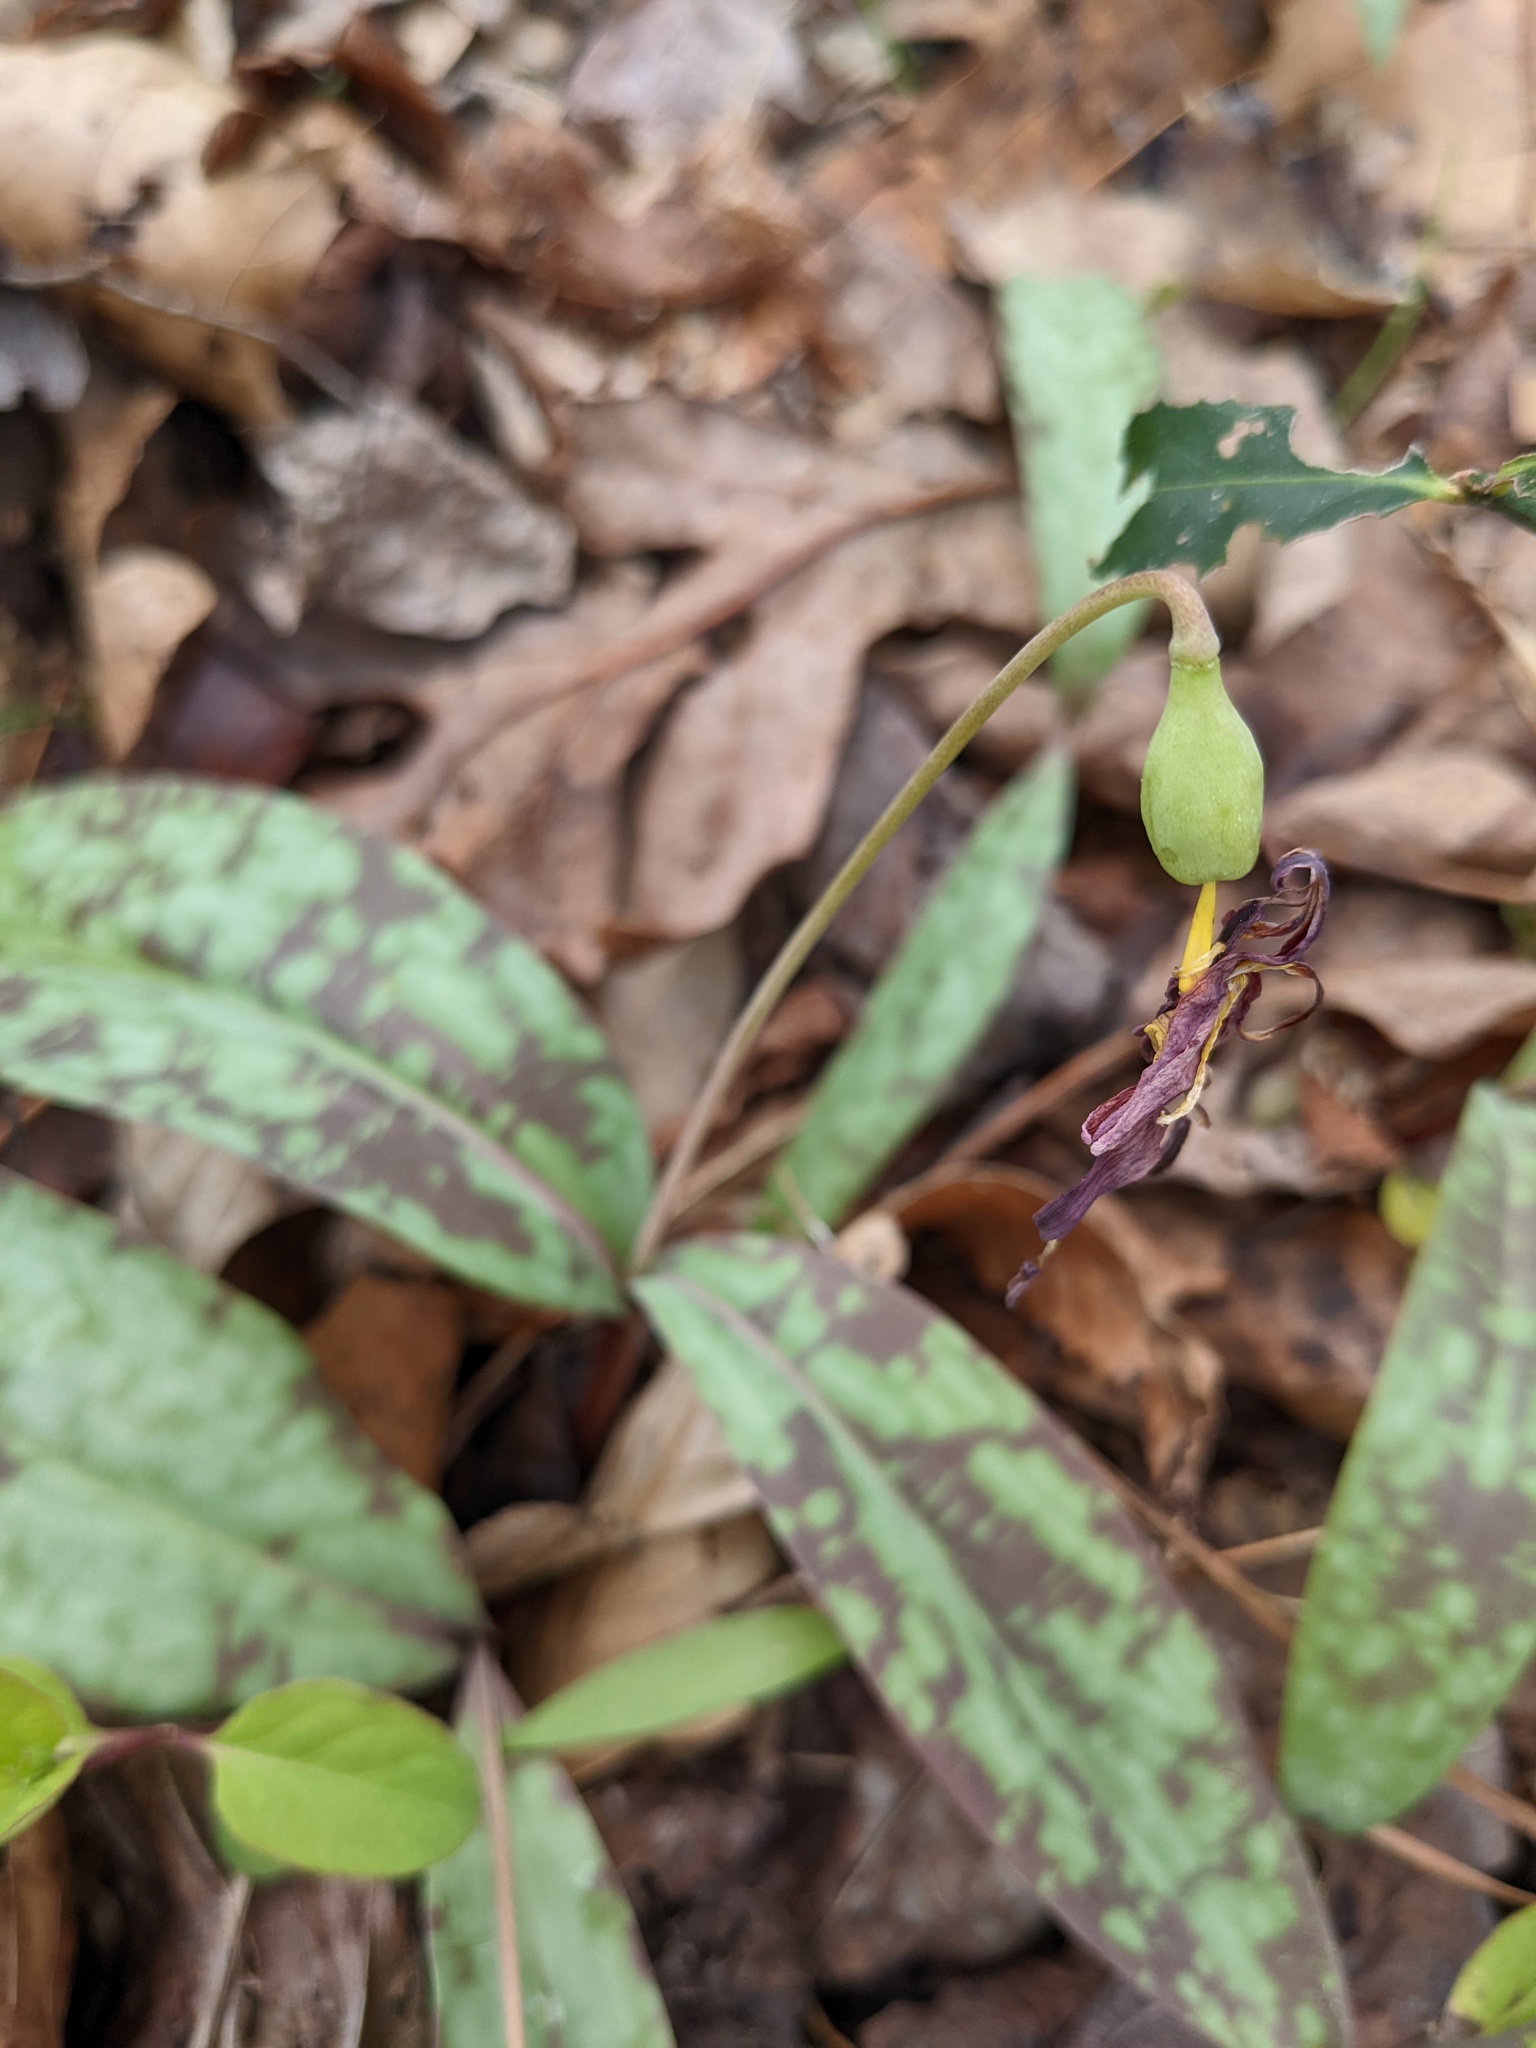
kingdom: Plantae
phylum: Tracheophyta
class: Liliopsida
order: Liliales
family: Liliaceae
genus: Erythronium
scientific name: Erythronium umbilicatum
